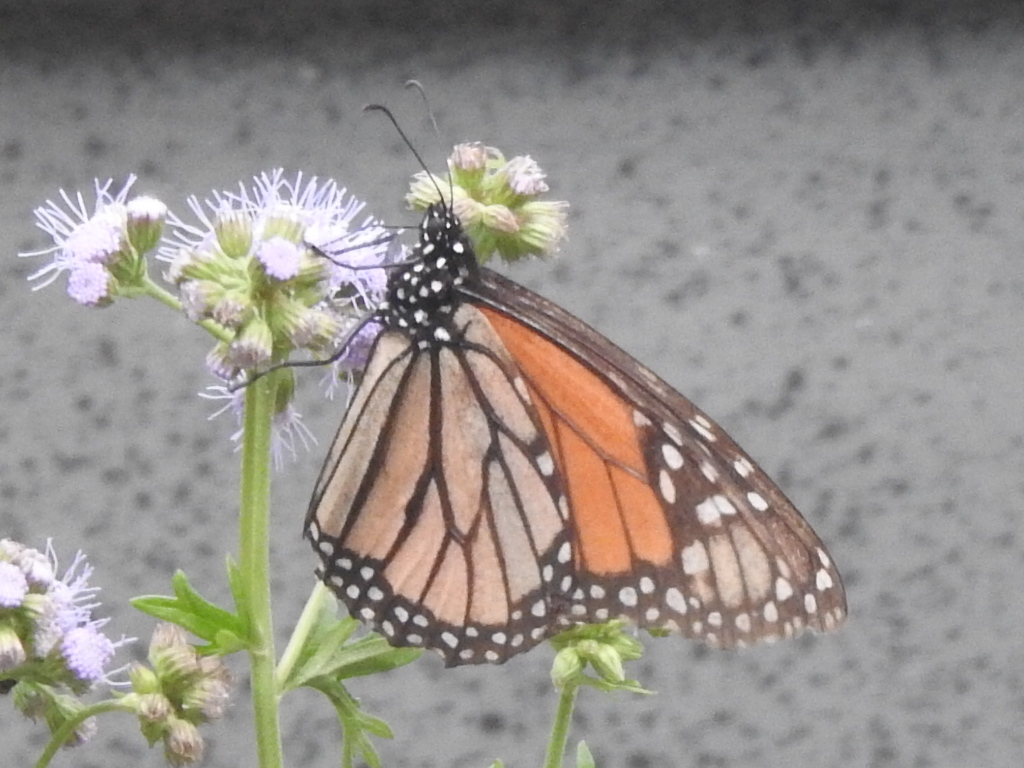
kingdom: Animalia
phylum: Arthropoda
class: Insecta
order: Lepidoptera
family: Nymphalidae
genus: Danaus
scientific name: Danaus plexippus
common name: Monarch
